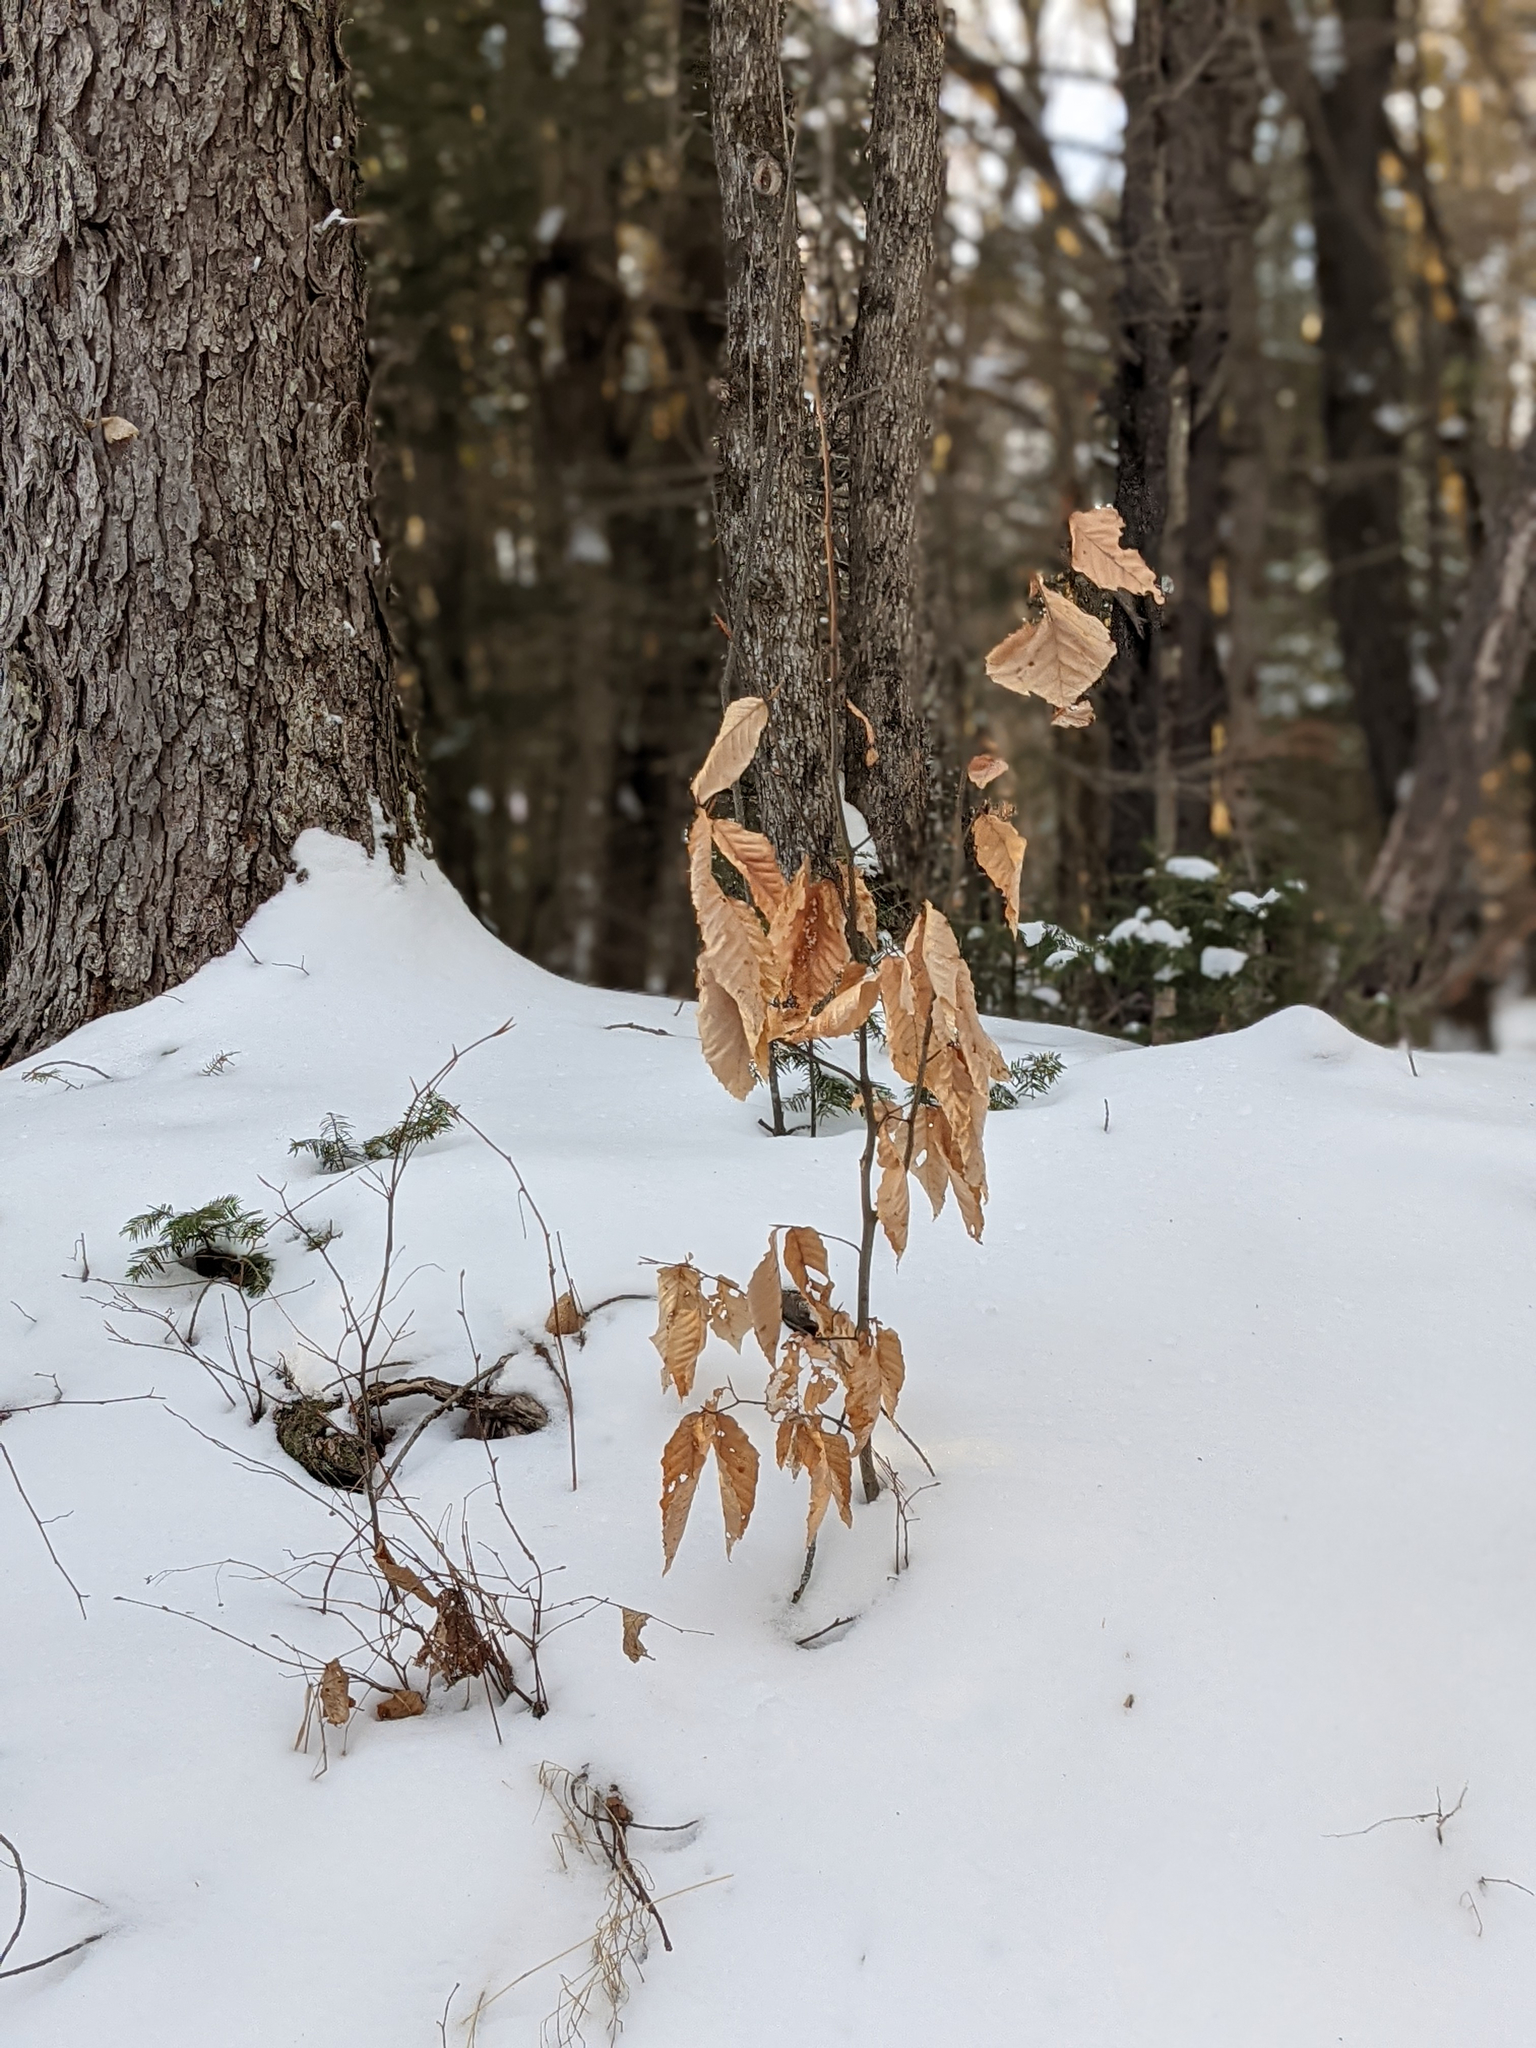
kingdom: Plantae
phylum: Tracheophyta
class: Magnoliopsida
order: Fagales
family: Fagaceae
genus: Fagus
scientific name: Fagus grandifolia
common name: American beech
